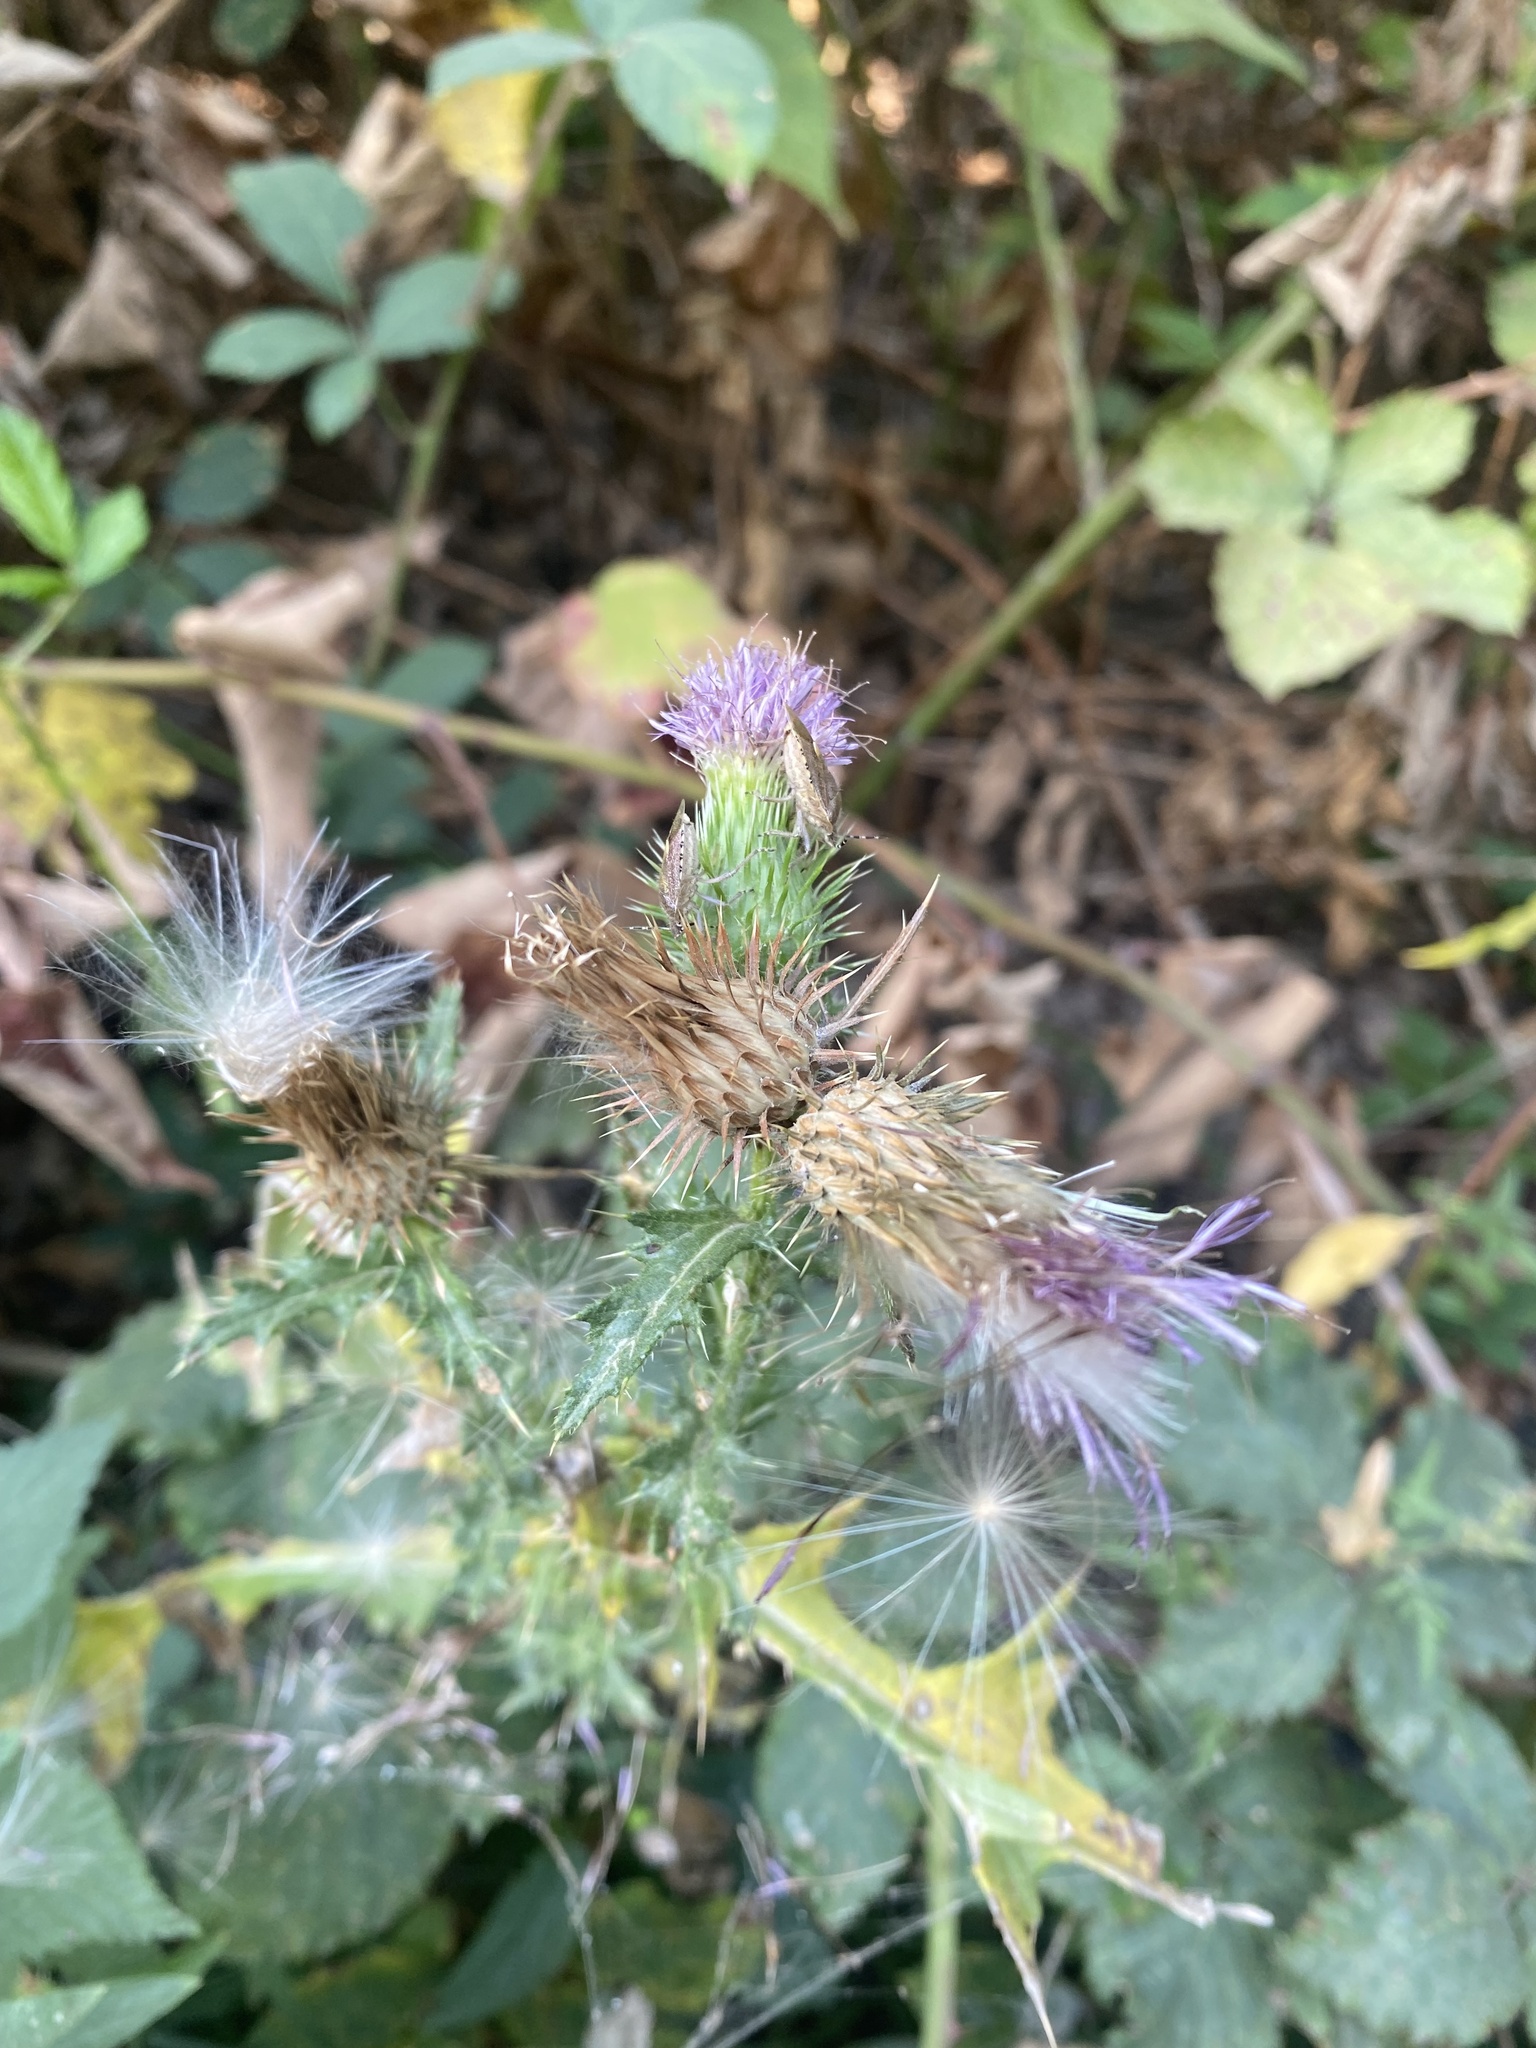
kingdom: Plantae
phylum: Tracheophyta
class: Magnoliopsida
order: Asterales
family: Asteraceae
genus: Cirsium
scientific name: Cirsium vulgare
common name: Bull thistle
